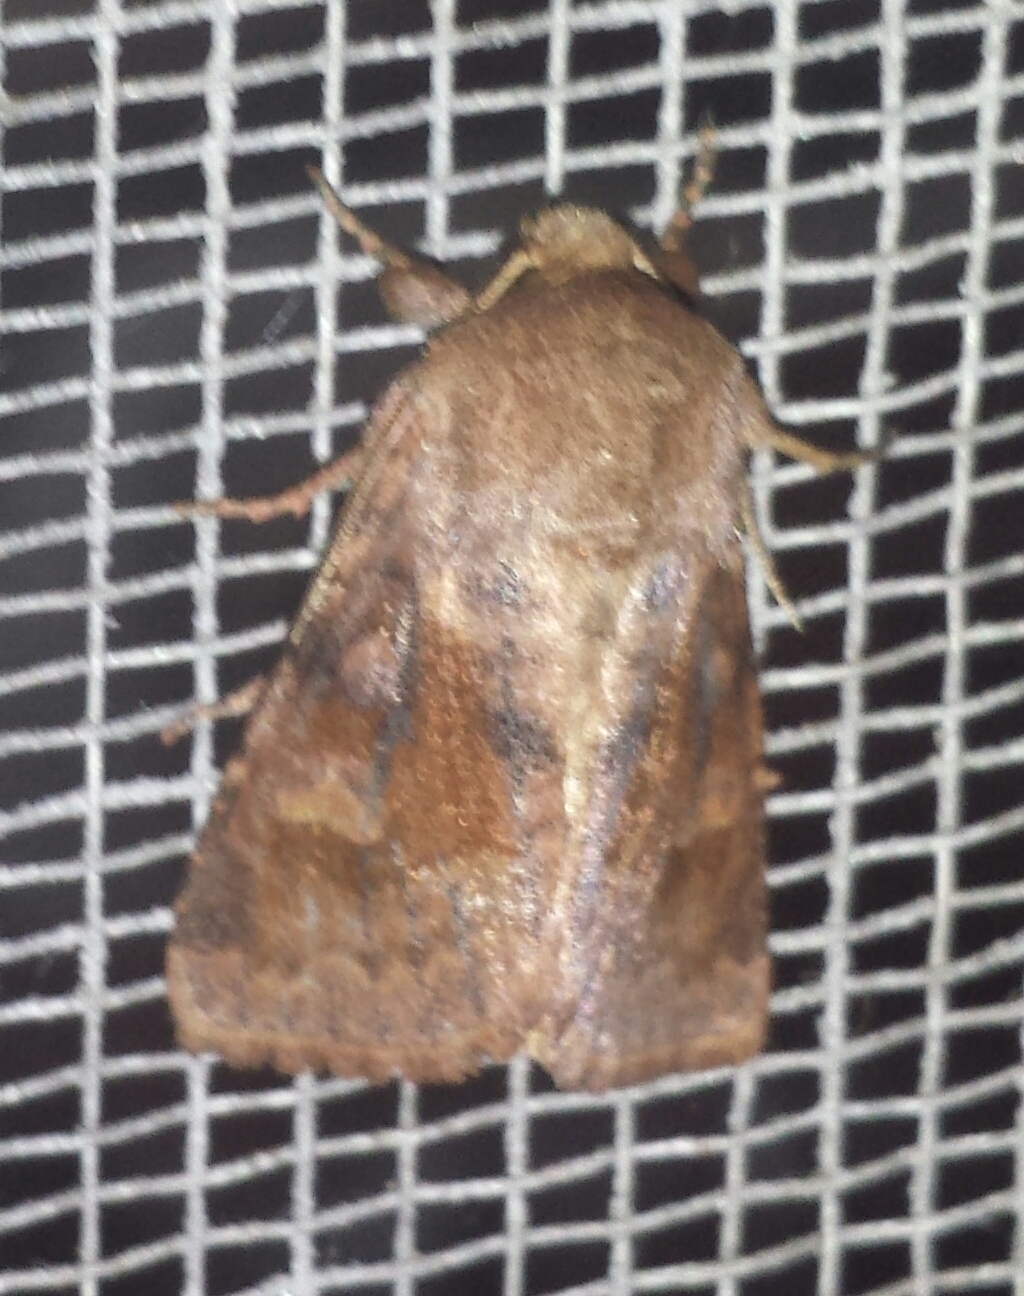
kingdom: Animalia
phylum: Arthropoda
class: Insecta
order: Lepidoptera
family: Noctuidae
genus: Nephelodes
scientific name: Nephelodes minians
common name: Bronzed cutworm
